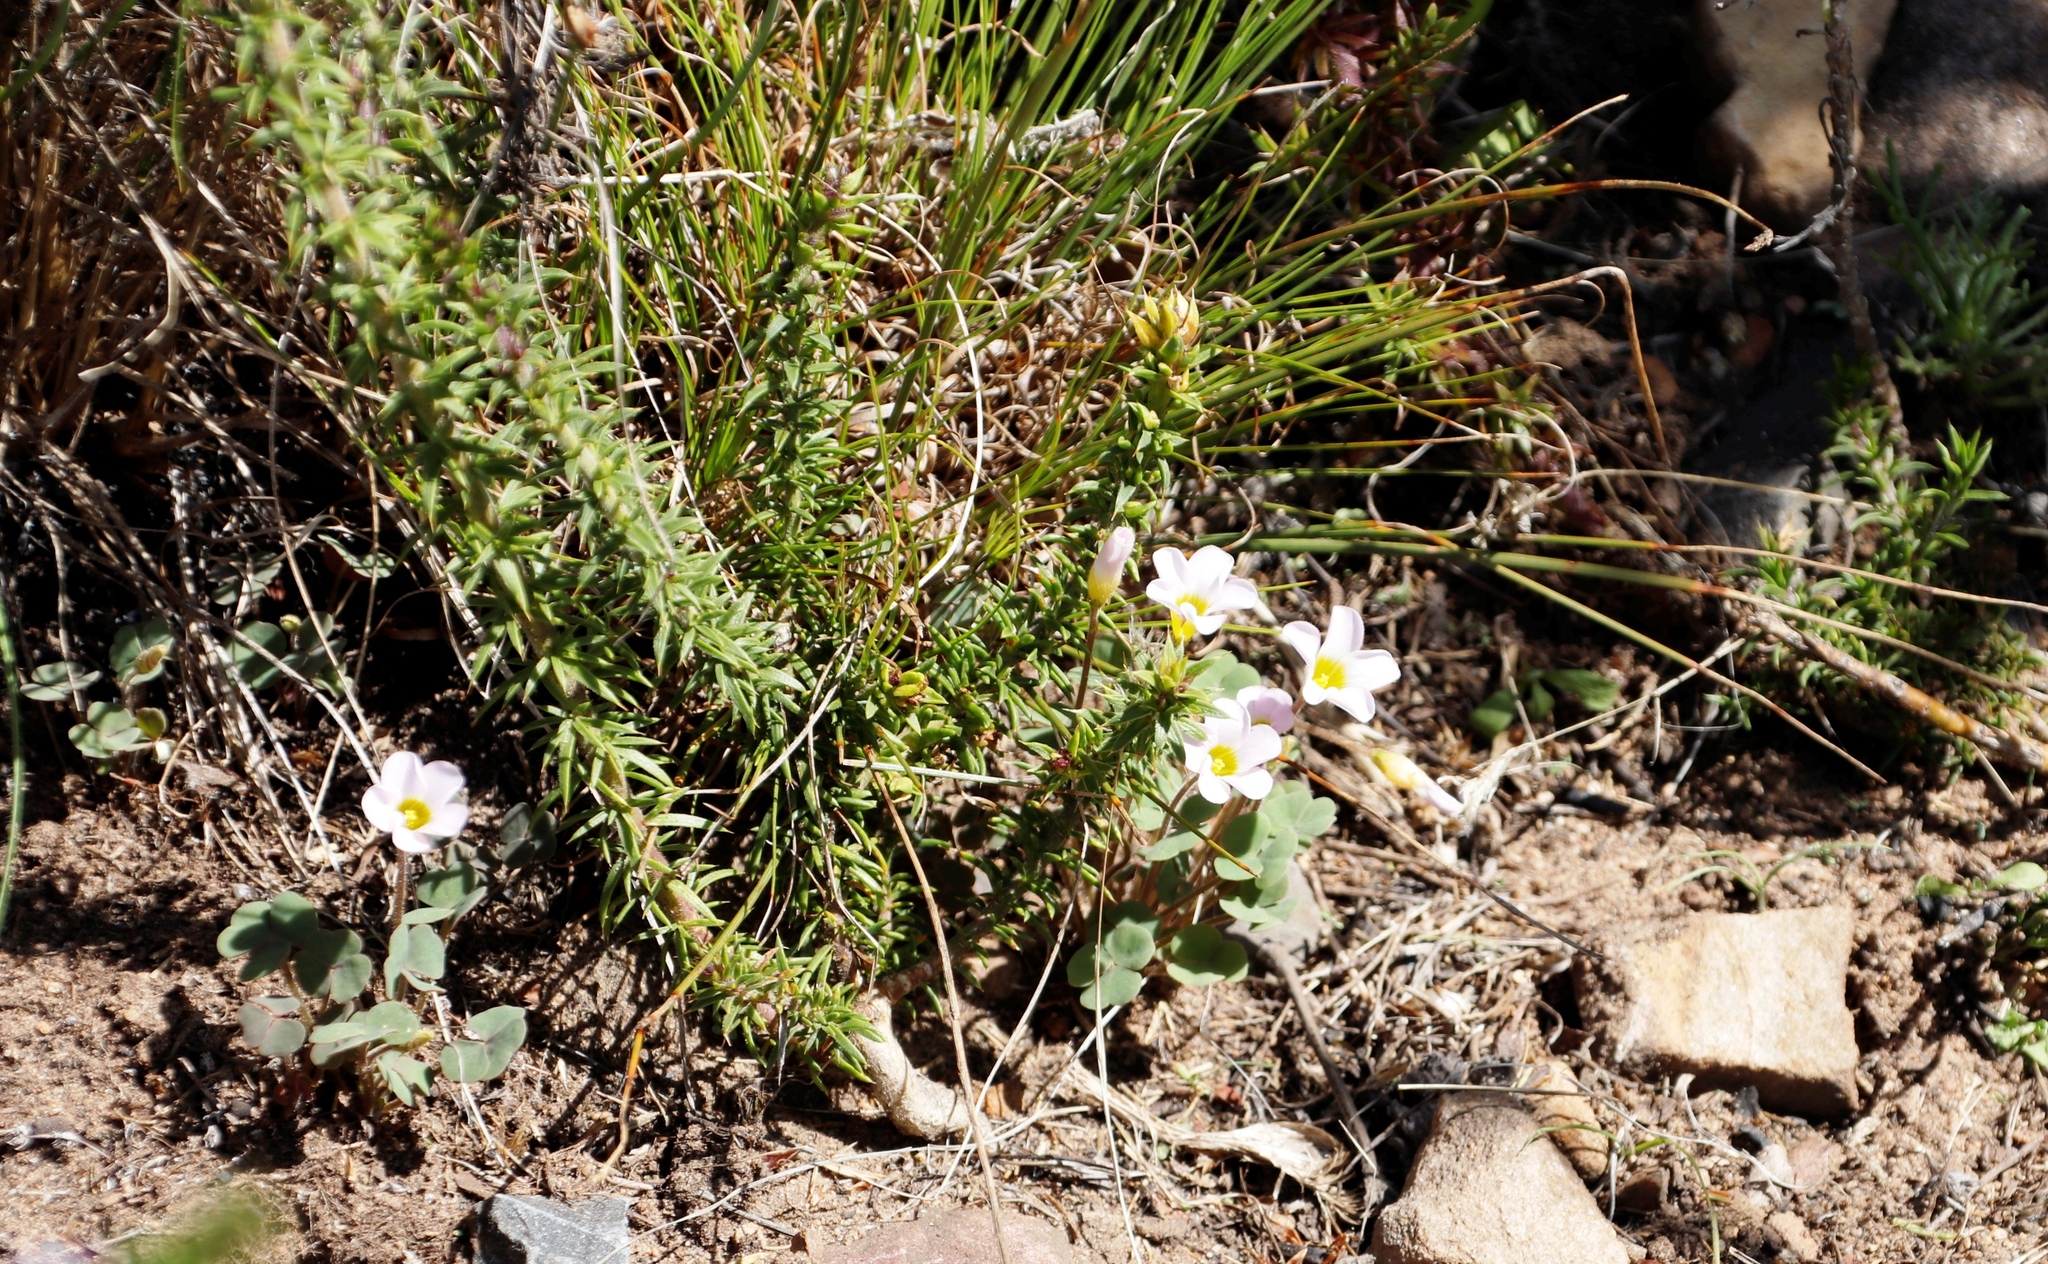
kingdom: Plantae
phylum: Tracheophyta
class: Magnoliopsida
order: Oxalidales
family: Oxalidaceae
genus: Oxalis
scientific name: Oxalis punctata
